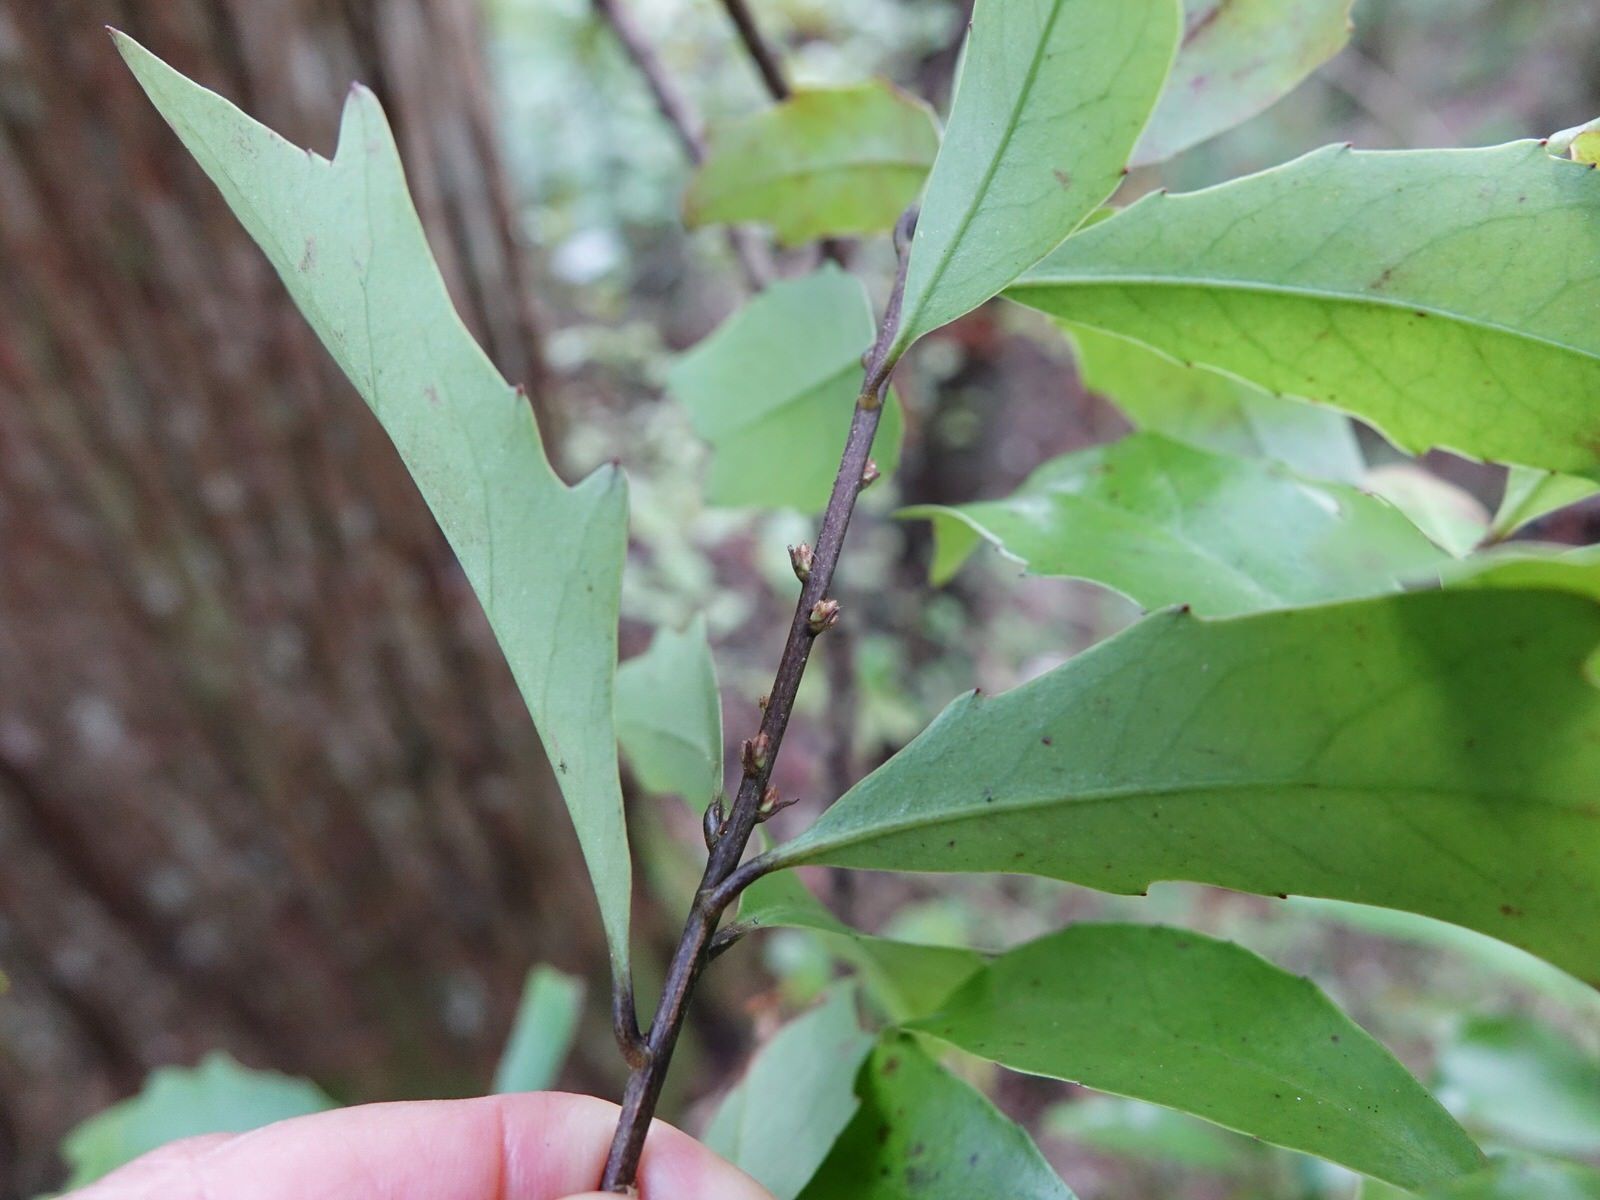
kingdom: Plantae
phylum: Tracheophyta
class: Magnoliopsida
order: Asterales
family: Alseuosmiaceae
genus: Alseuosmia
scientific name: Alseuosmia quercifolia
